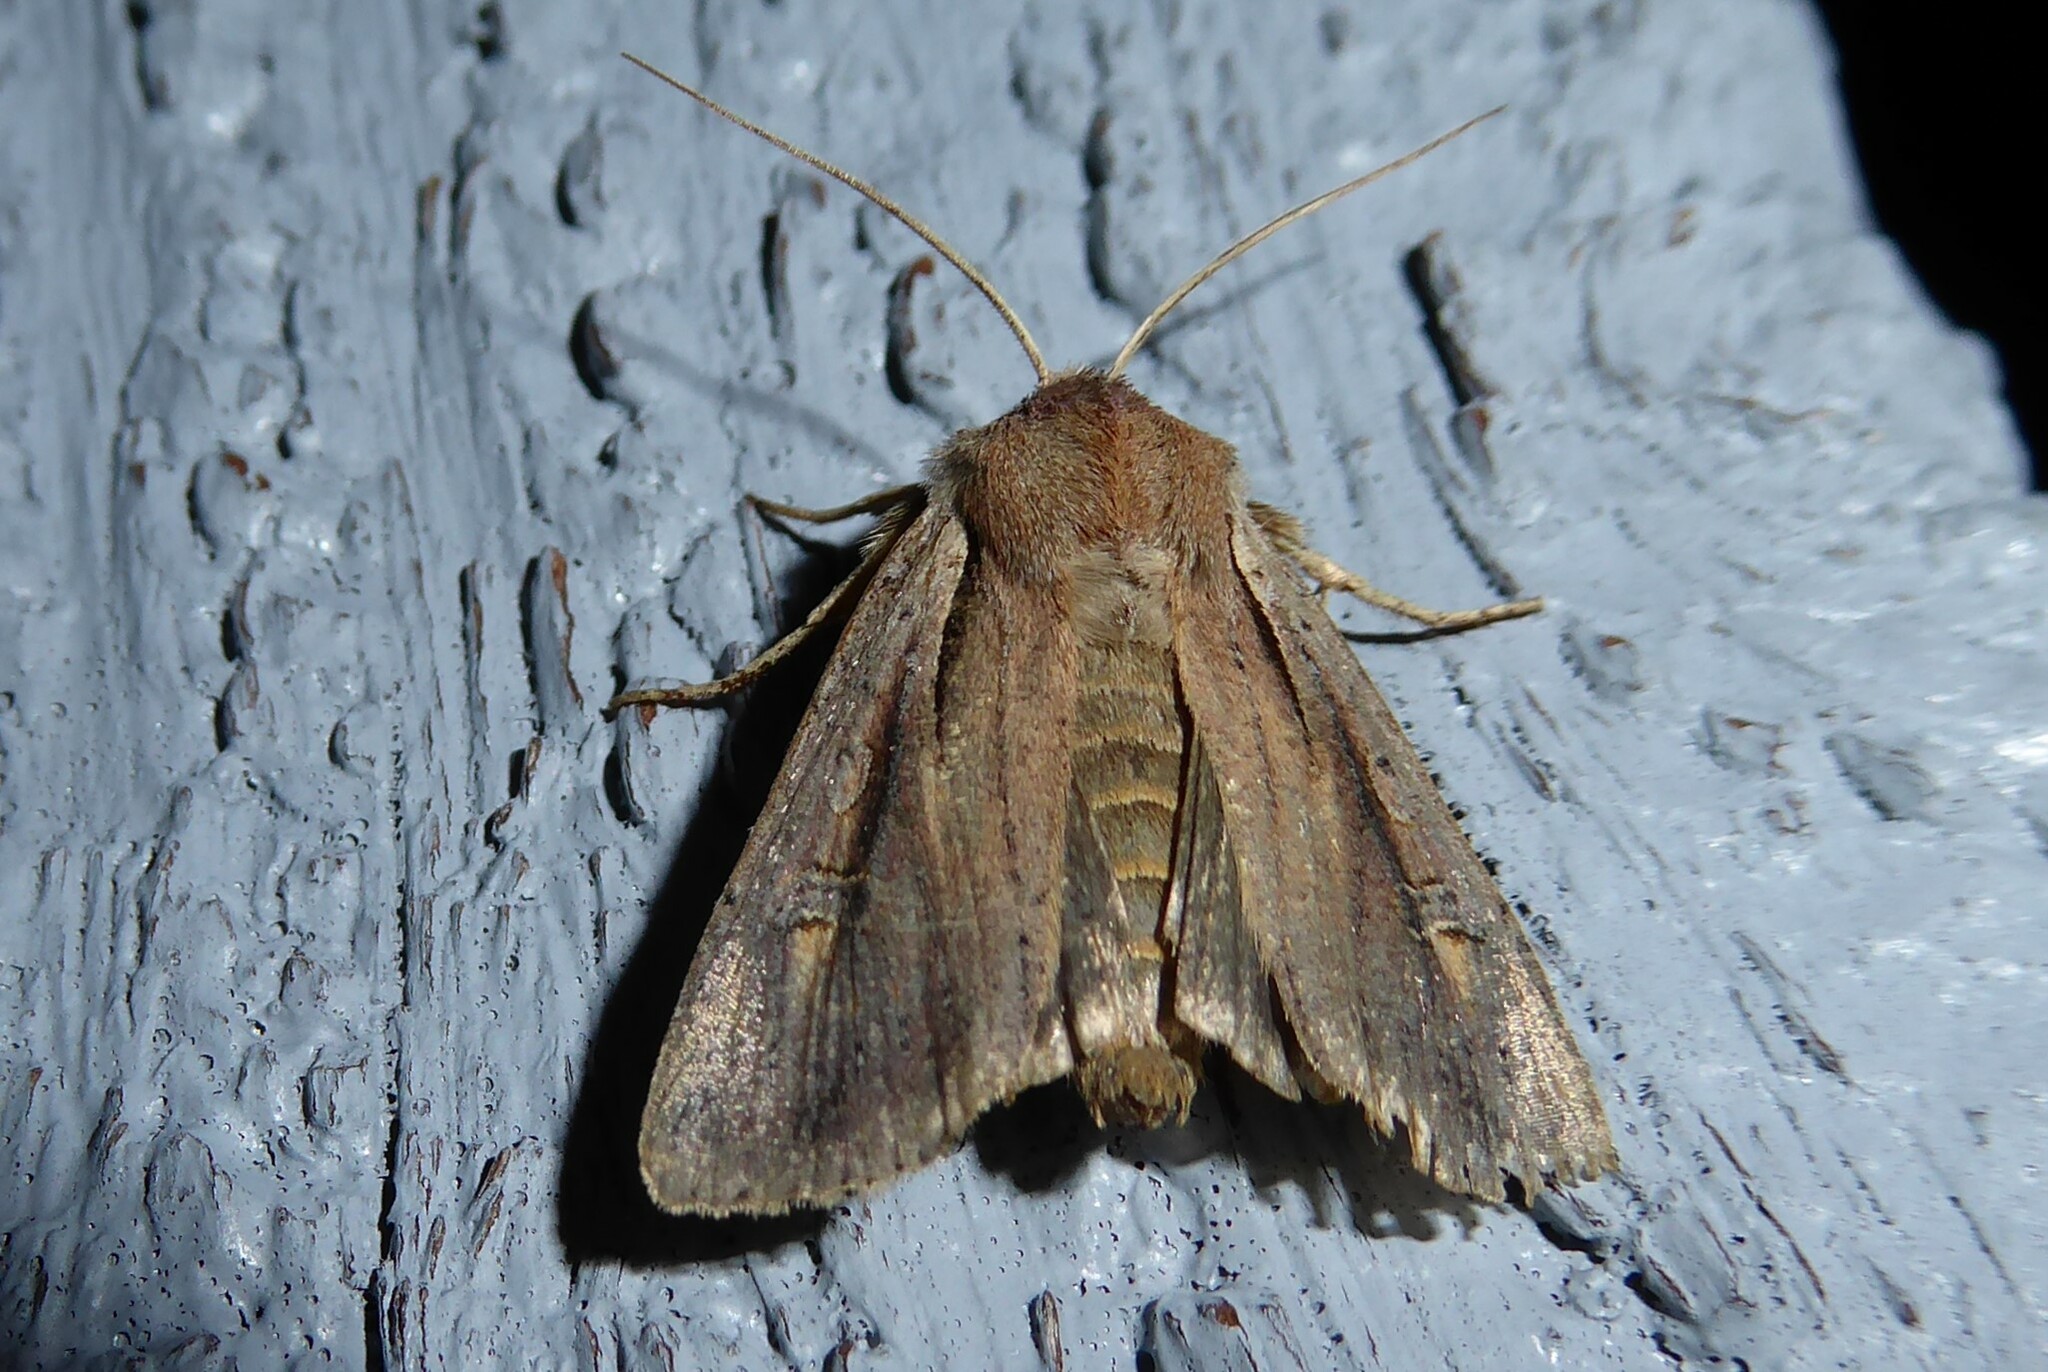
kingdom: Animalia
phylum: Arthropoda
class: Insecta
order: Lepidoptera
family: Noctuidae
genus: Ichneutica
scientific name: Ichneutica atristriga
